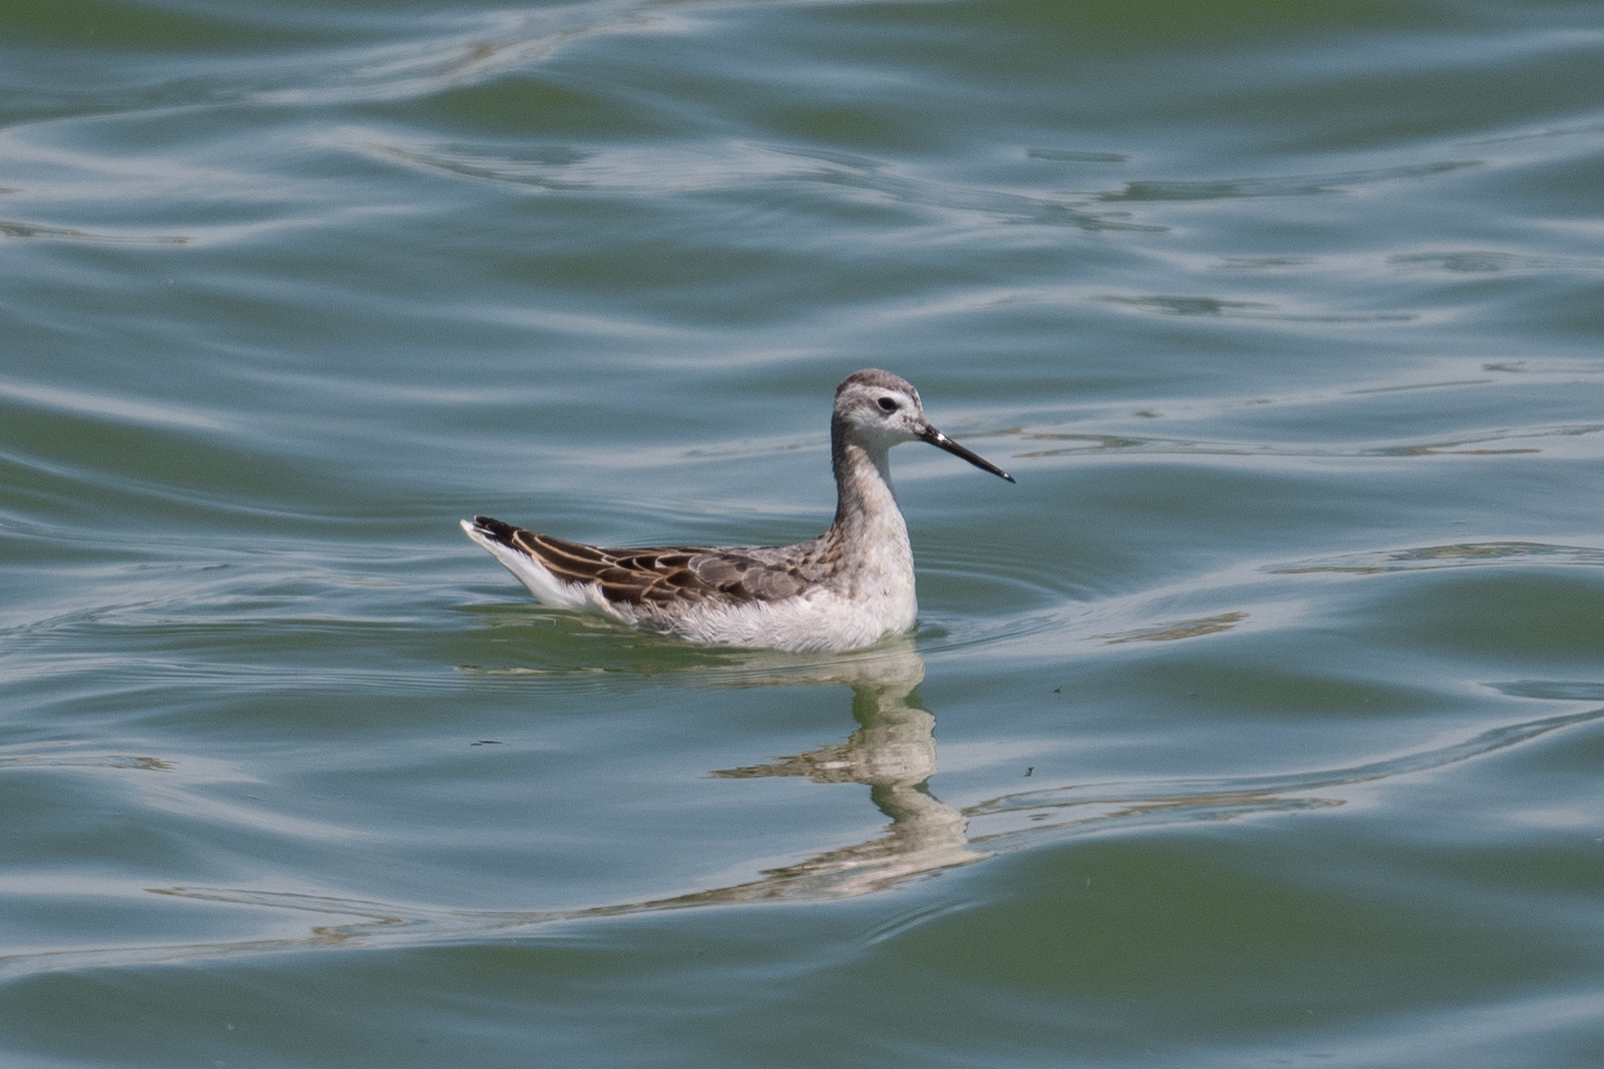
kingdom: Animalia
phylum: Chordata
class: Aves
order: Charadriiformes
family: Scolopacidae
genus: Phalaropus
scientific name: Phalaropus tricolor
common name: Wilson's phalarope
